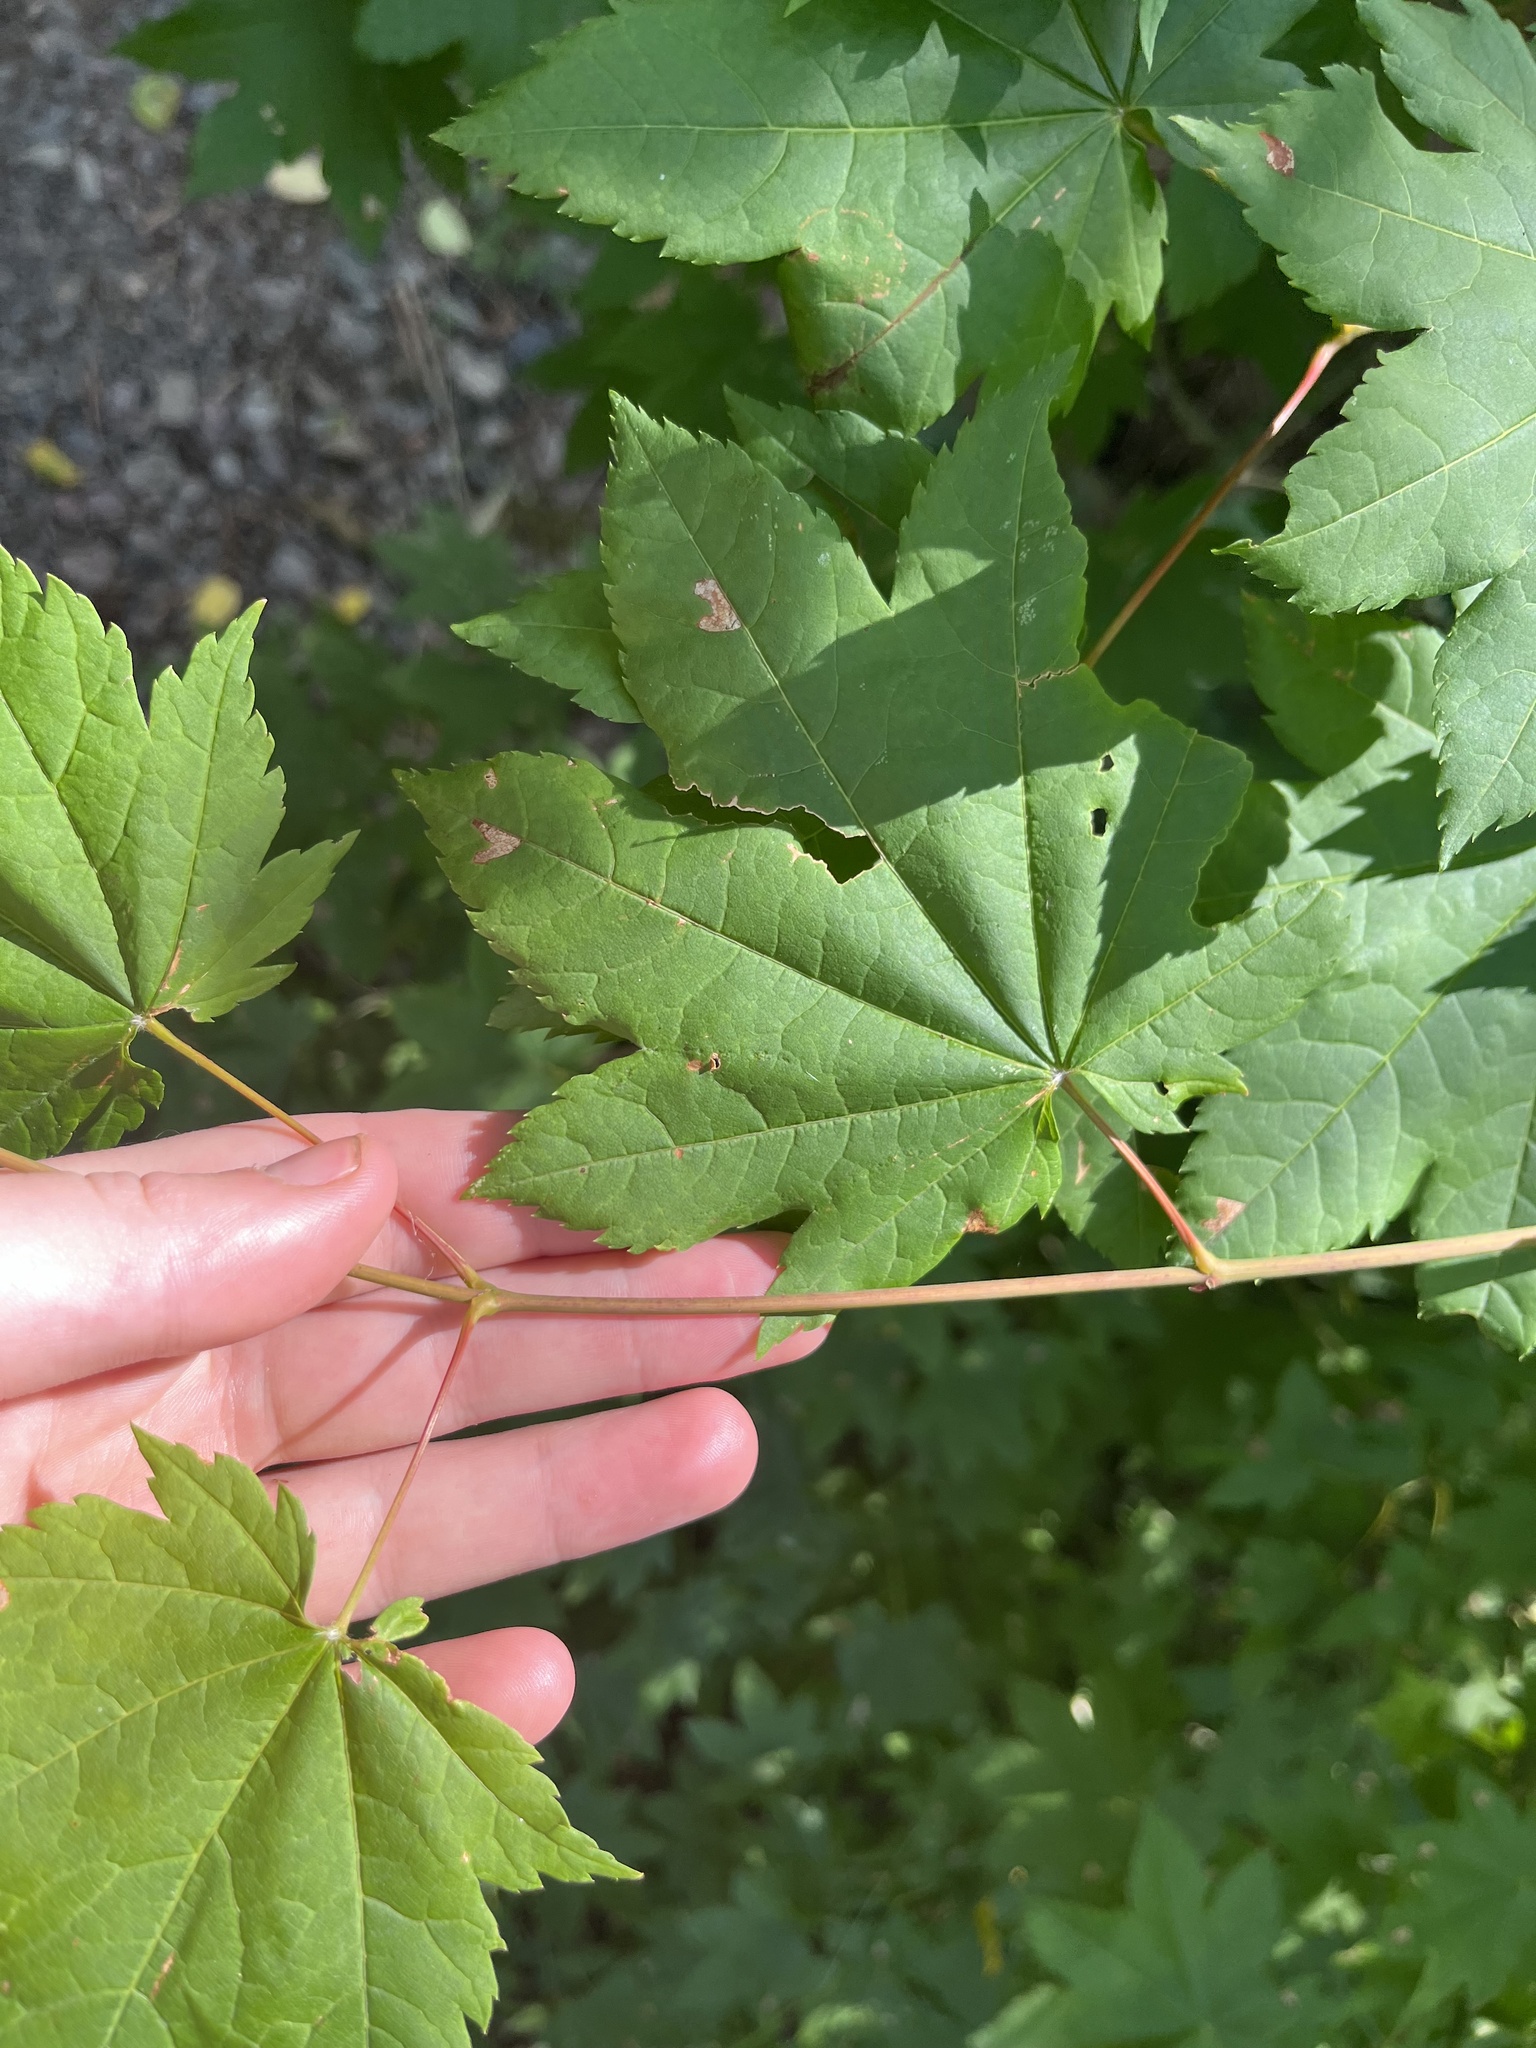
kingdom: Plantae
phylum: Tracheophyta
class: Magnoliopsida
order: Sapindales
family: Sapindaceae
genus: Acer
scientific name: Acer circinatum
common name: Vine maple
